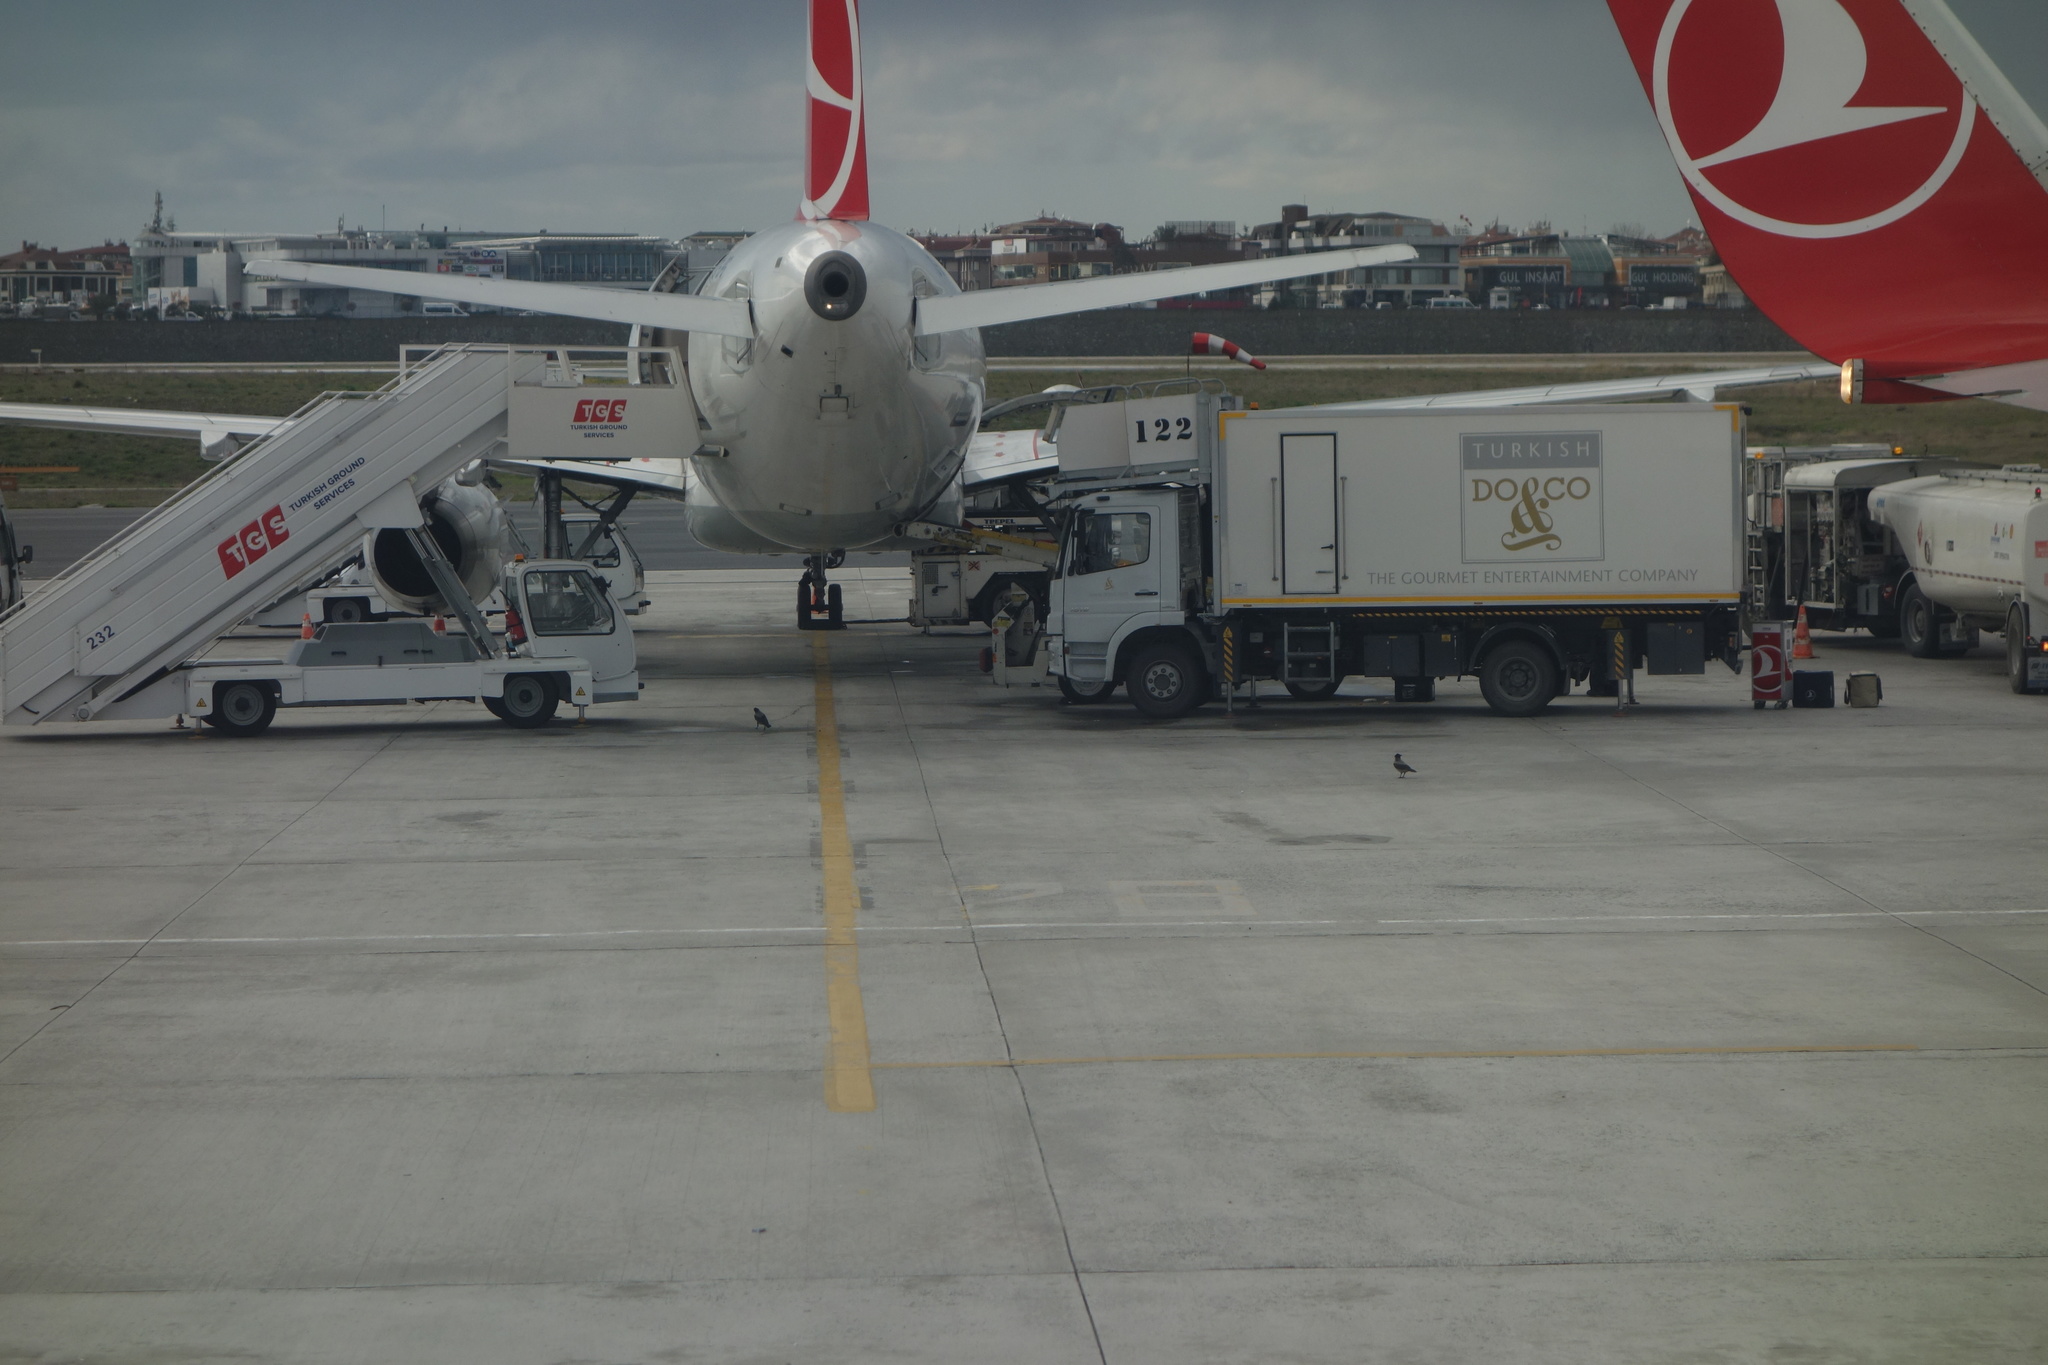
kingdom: Animalia
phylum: Chordata
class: Aves
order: Passeriformes
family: Corvidae
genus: Corvus
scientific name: Corvus cornix
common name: Hooded crow
